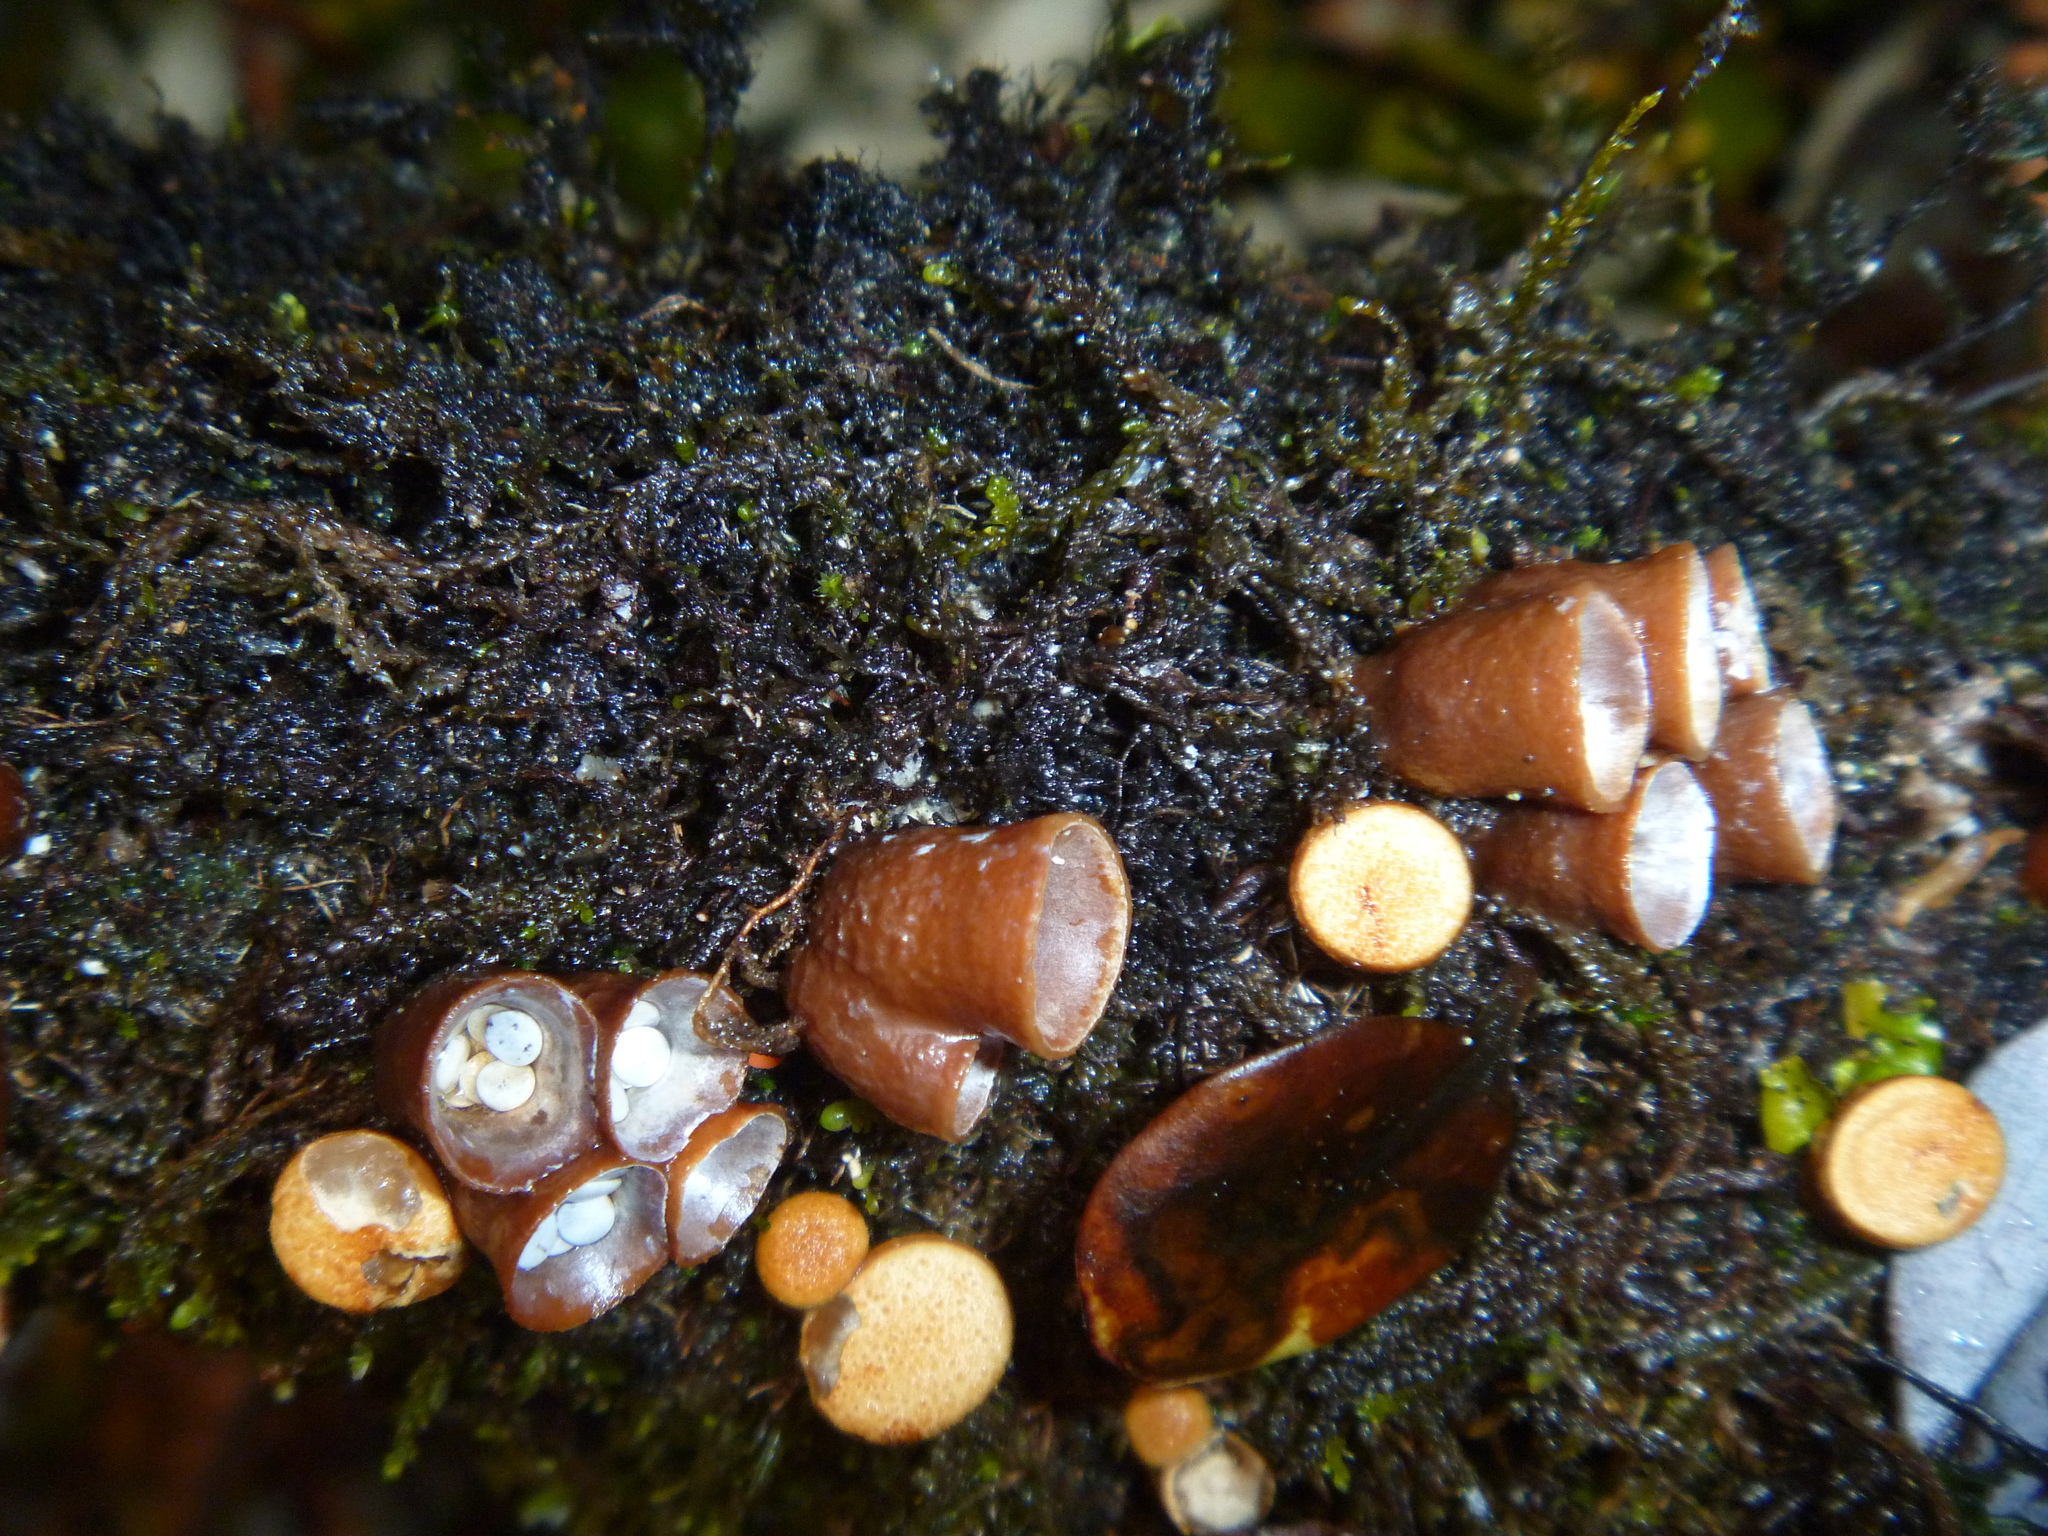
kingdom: Fungi
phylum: Basidiomycota
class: Agaricomycetes
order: Agaricales
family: Nidulariaceae
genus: Crucibulum
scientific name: Crucibulum laeve
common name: Common bird's nest
